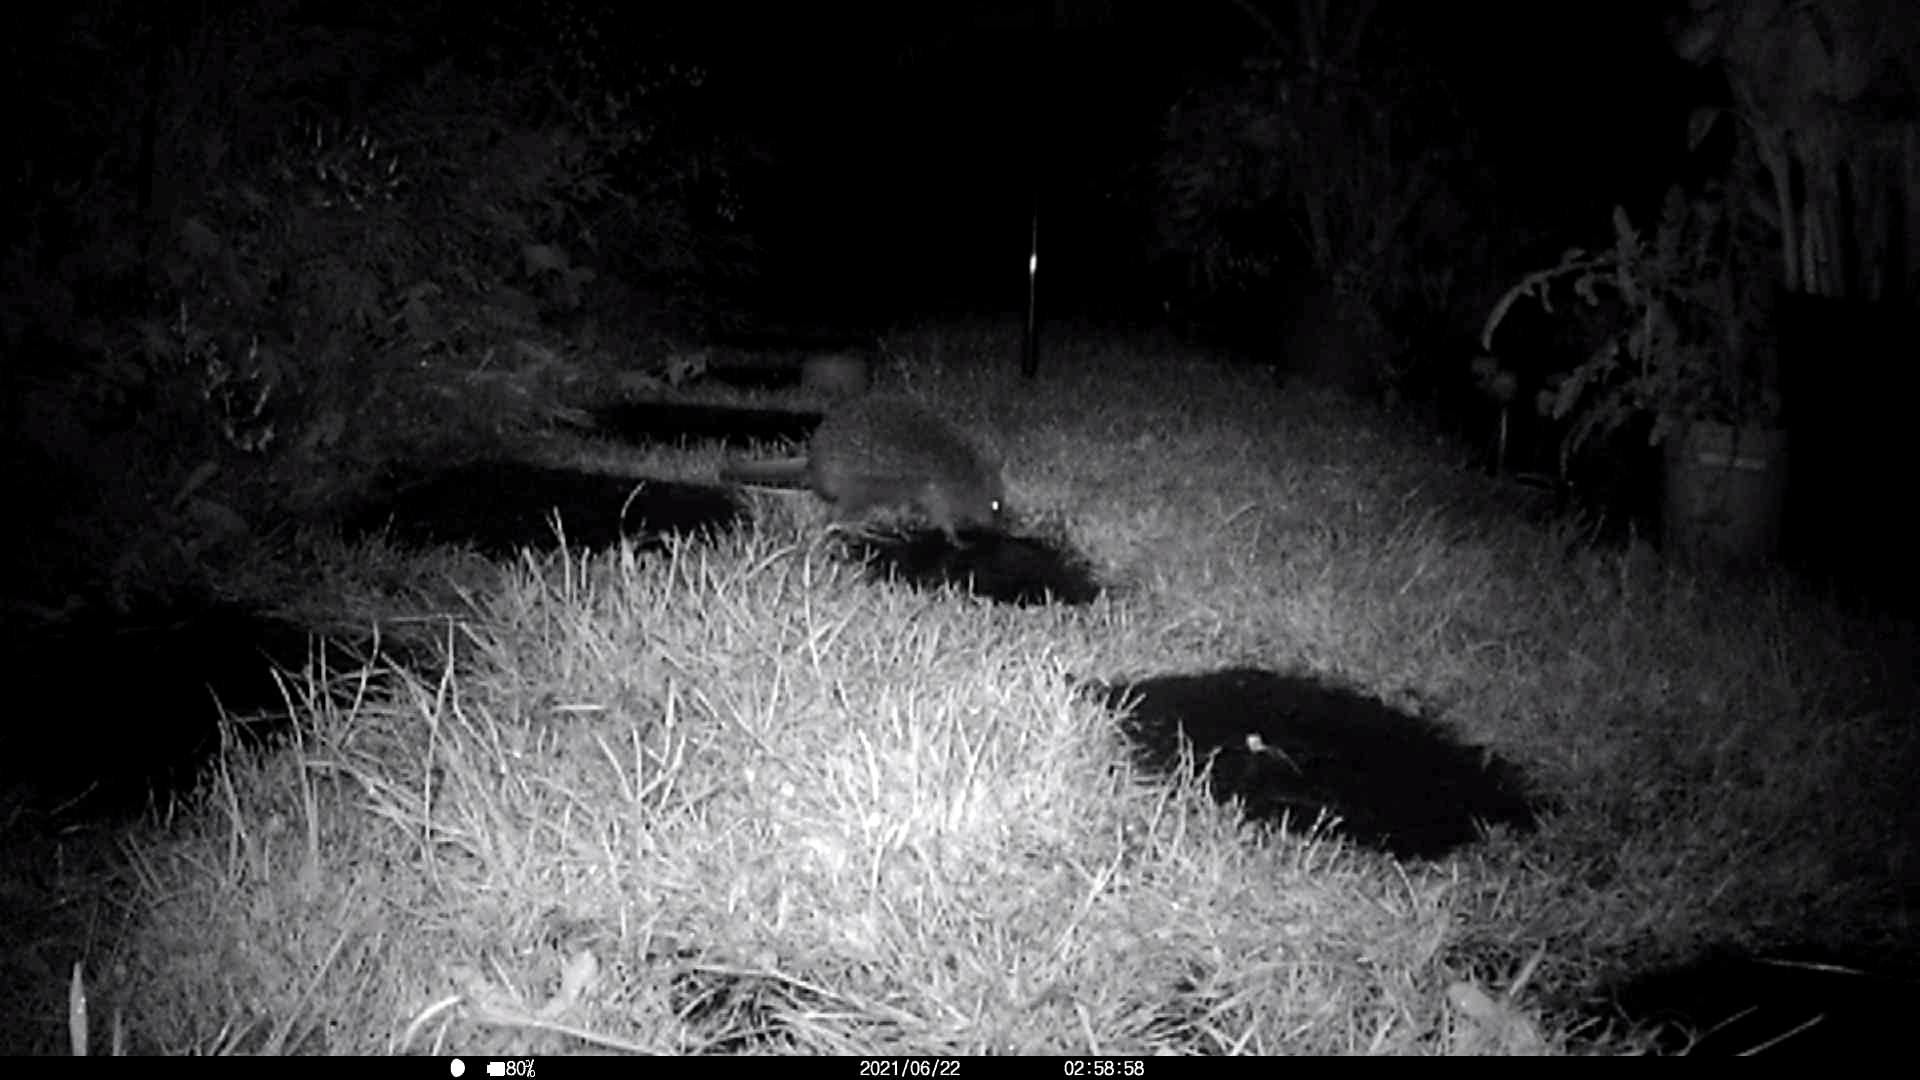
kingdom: Animalia
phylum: Chordata
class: Mammalia
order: Erinaceomorpha
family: Erinaceidae
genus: Erinaceus
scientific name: Erinaceus europaeus
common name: West european hedgehog
